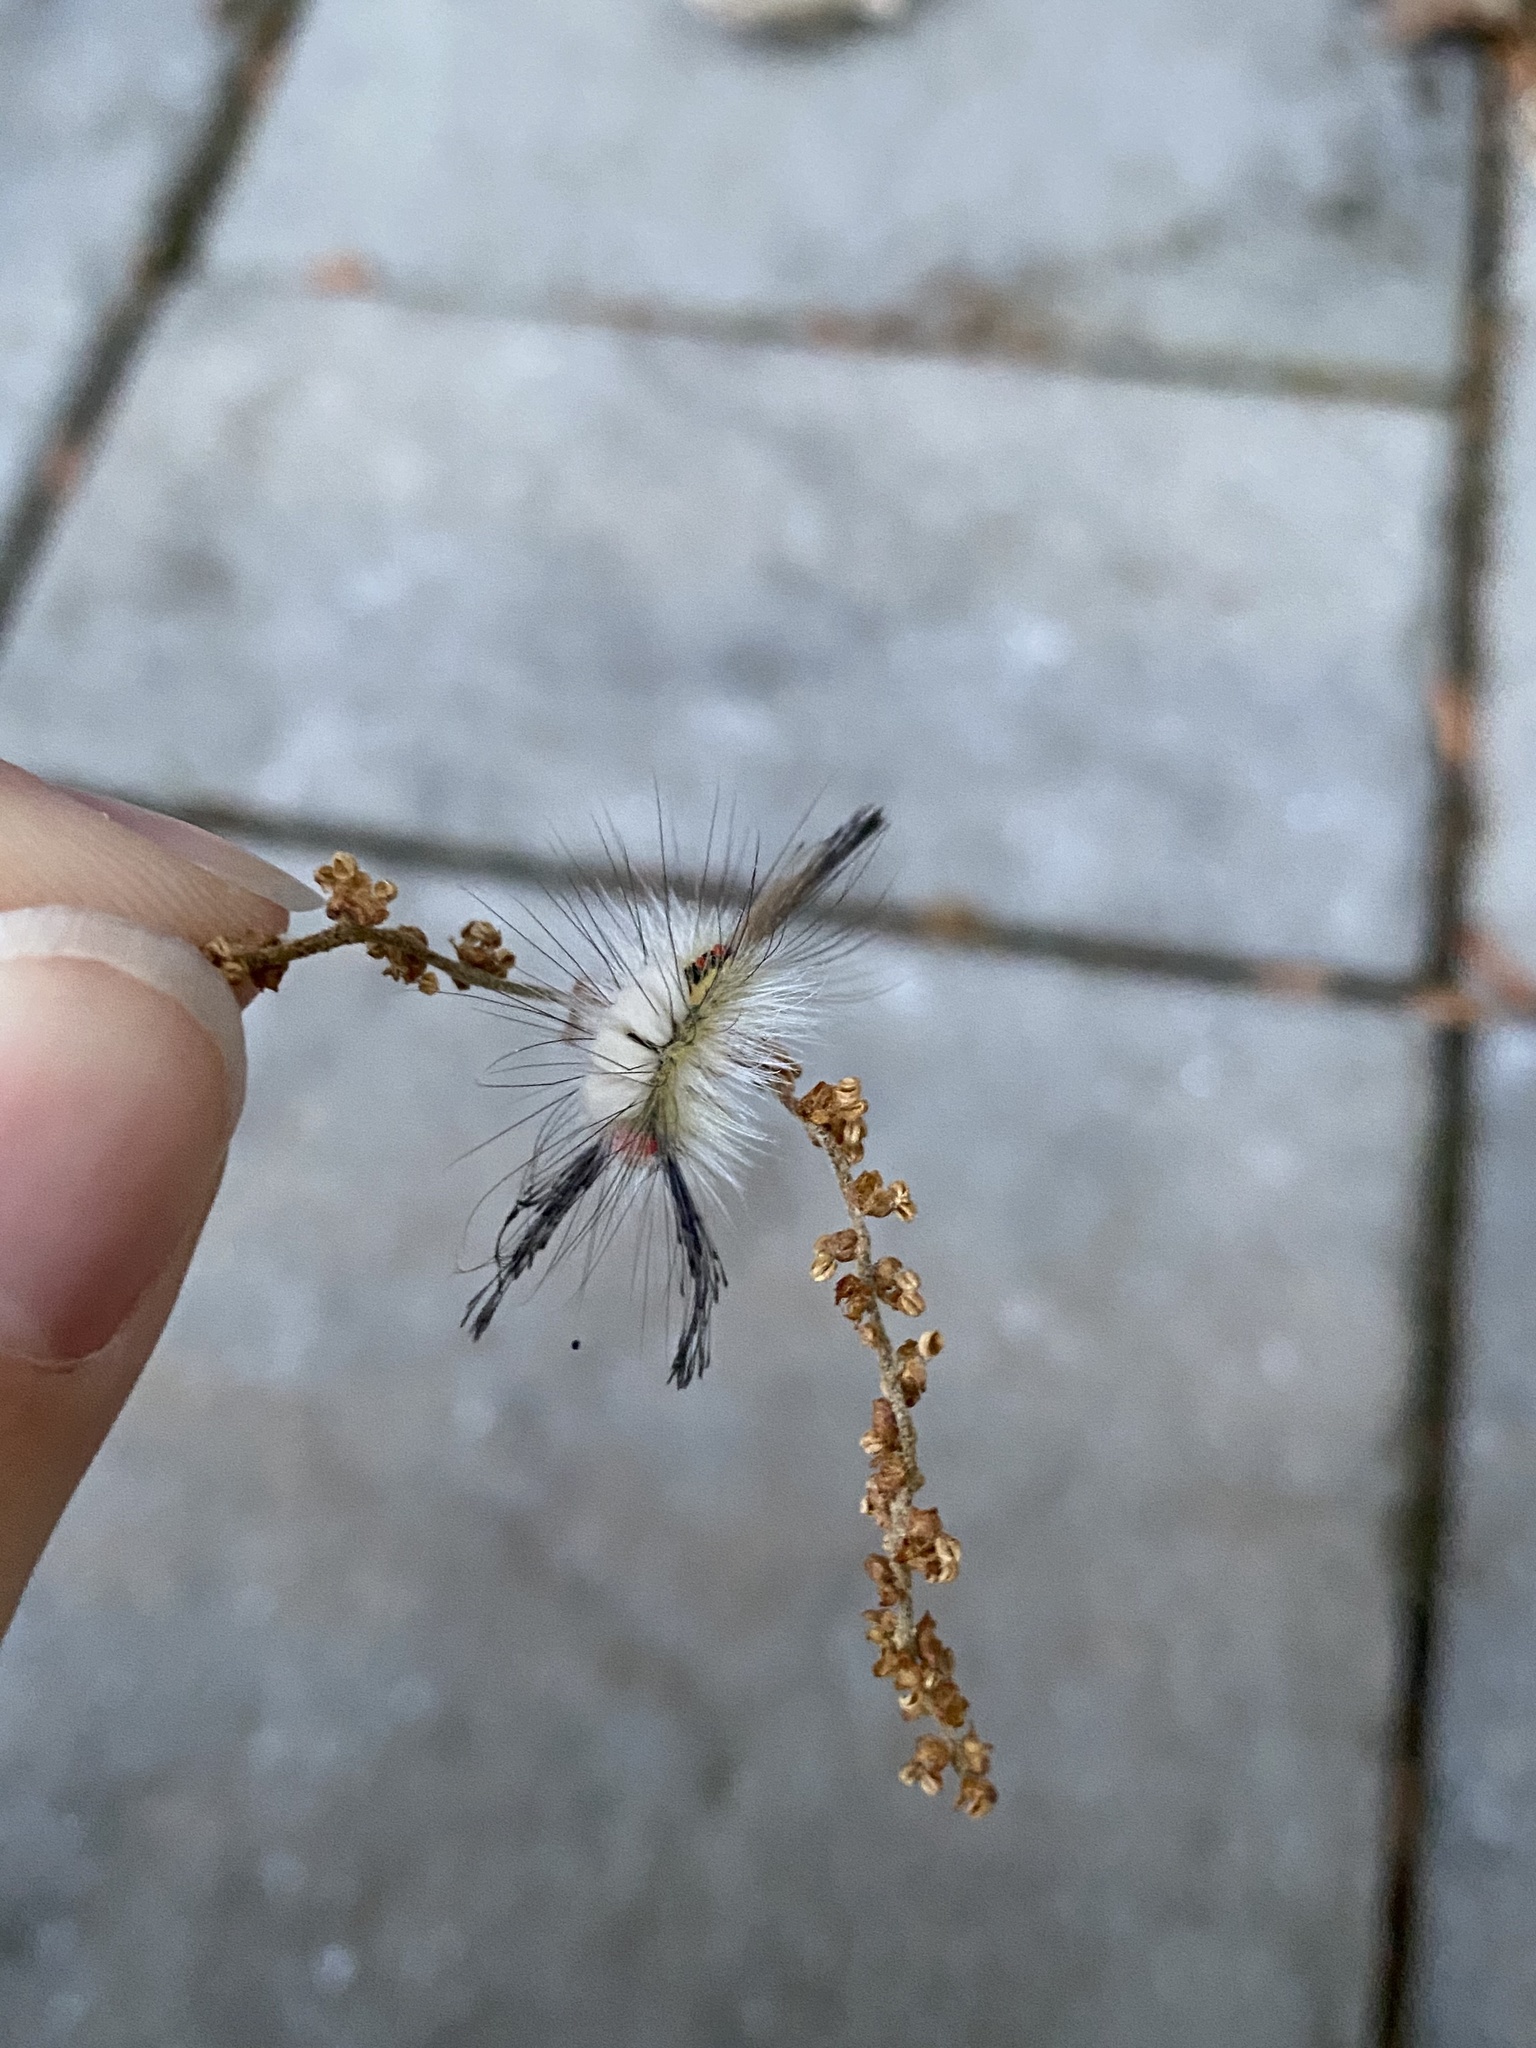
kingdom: Animalia
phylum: Arthropoda
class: Insecta
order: Lepidoptera
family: Erebidae
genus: Orgyia
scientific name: Orgyia leucostigma
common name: White-marked tussock moth
